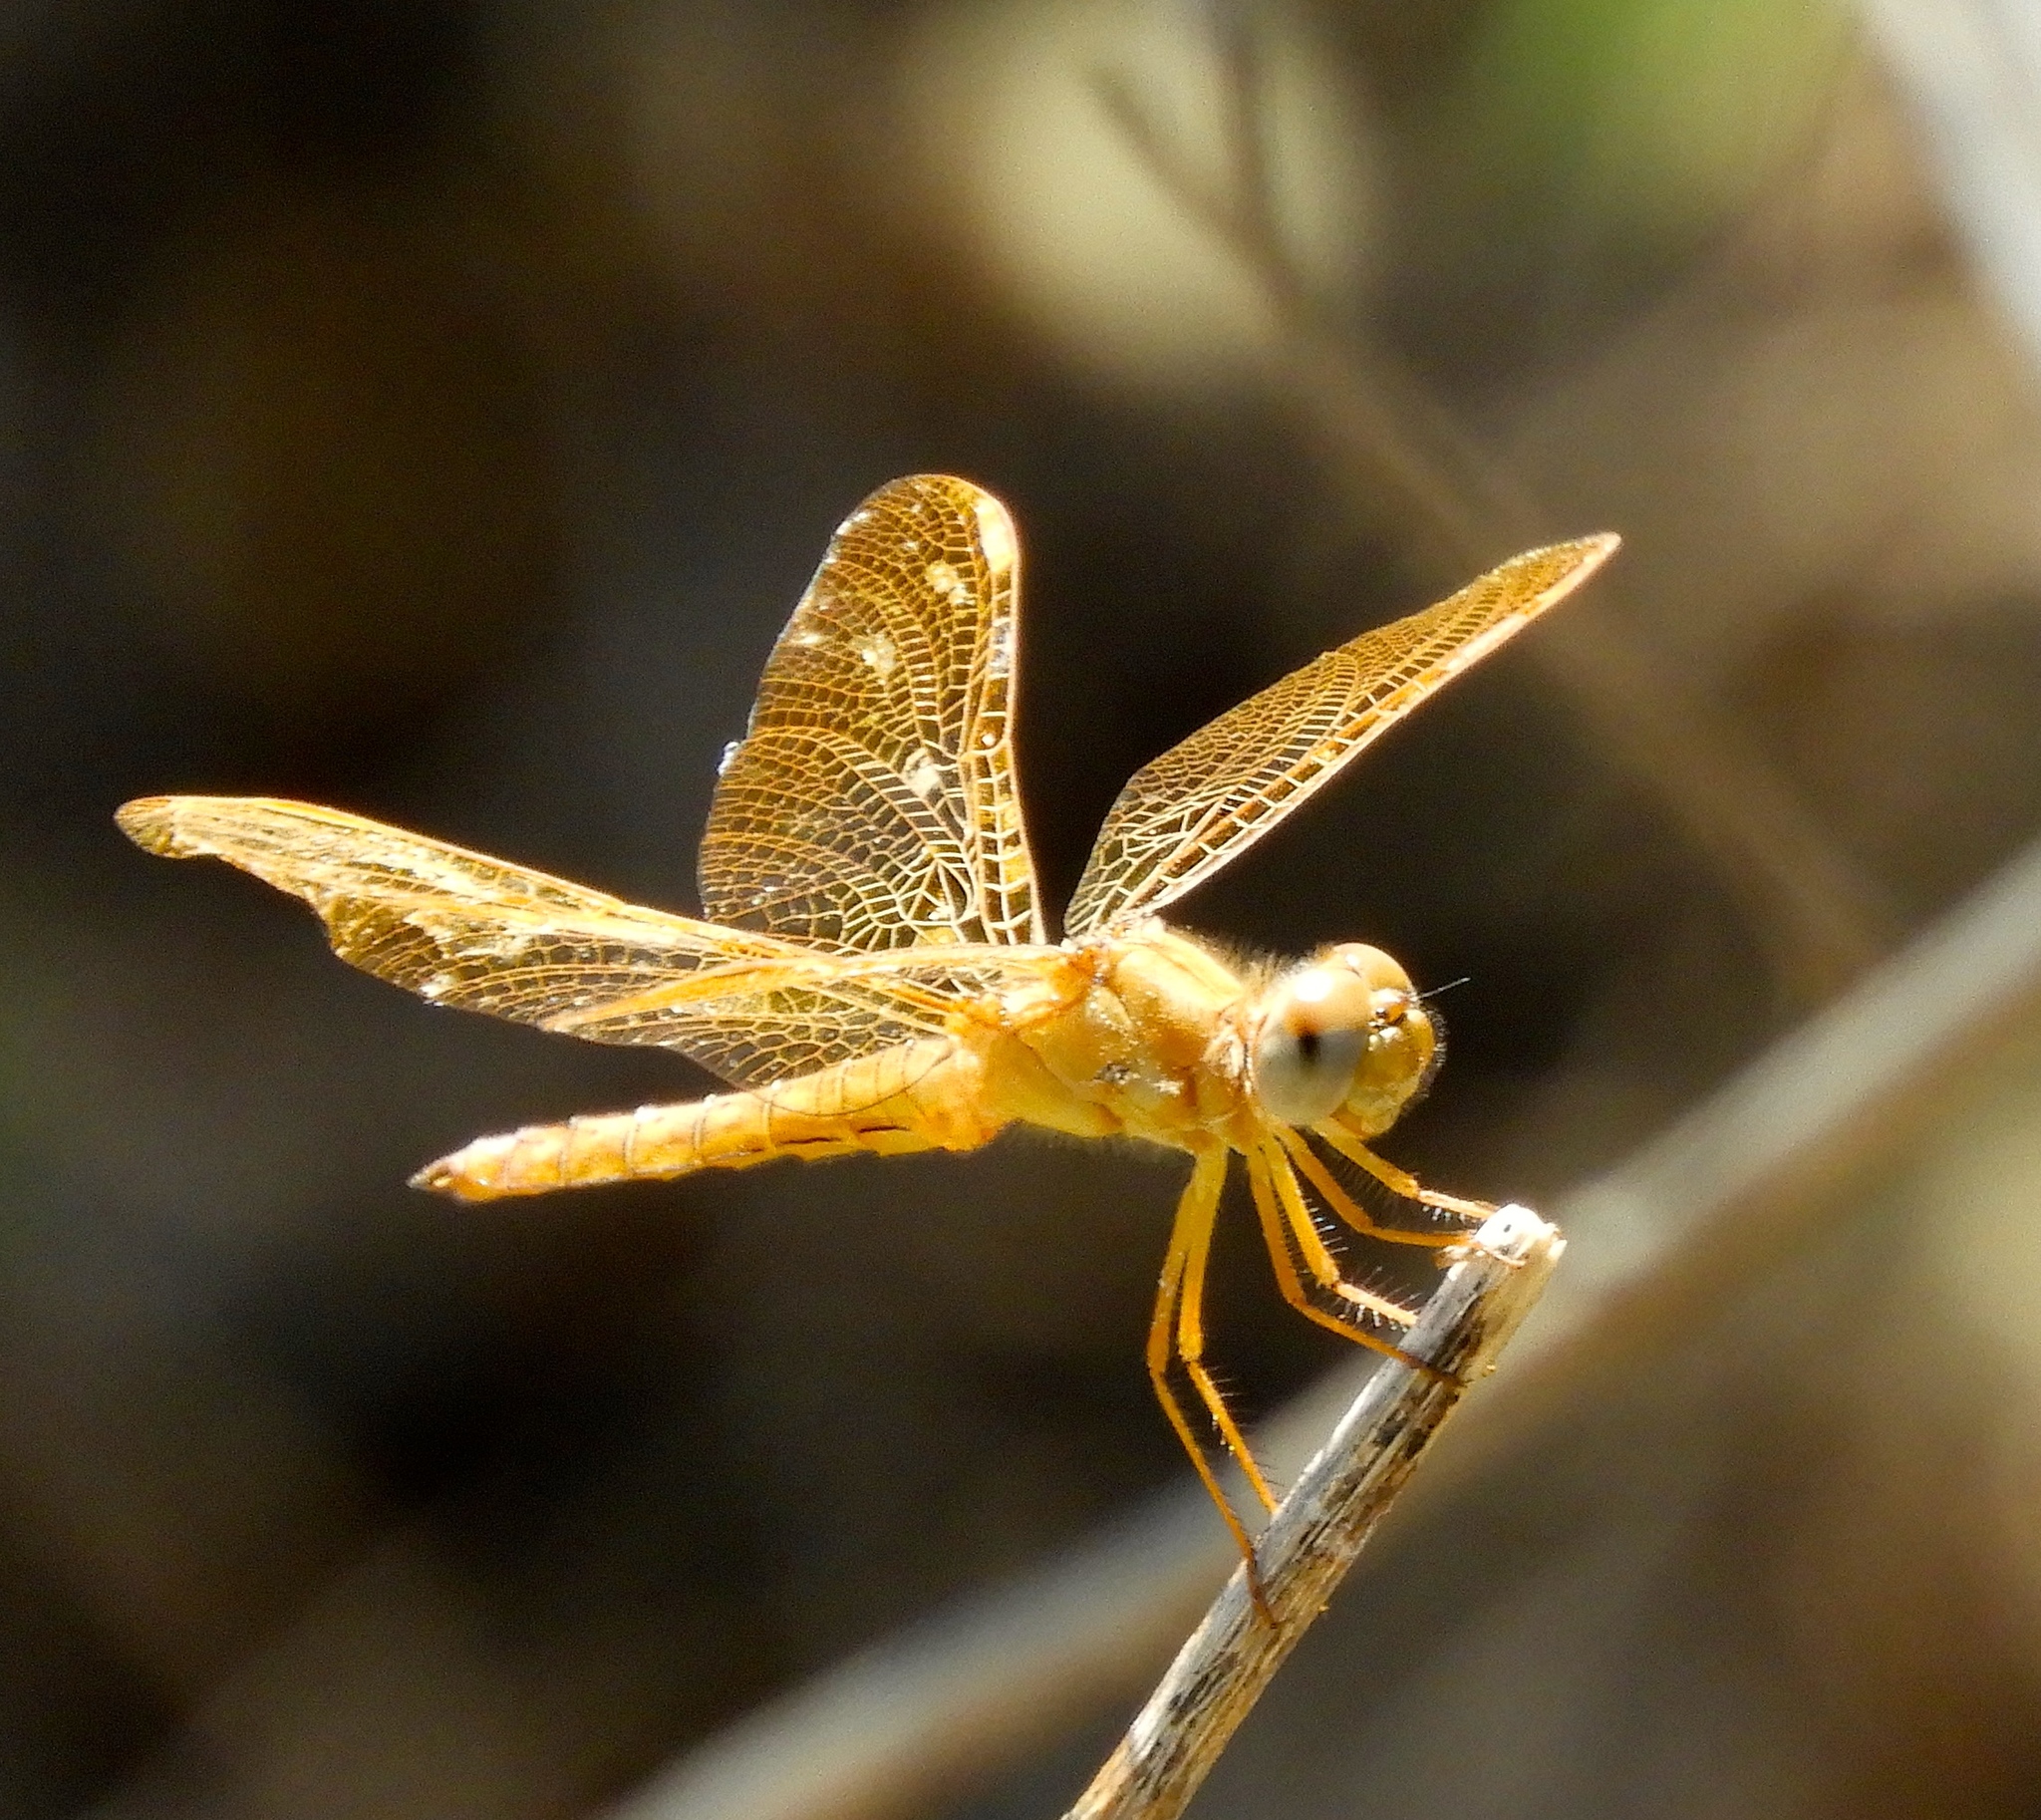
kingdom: Animalia
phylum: Arthropoda
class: Insecta
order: Odonata
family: Libellulidae
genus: Perithemis
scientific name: Perithemis intensa
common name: Mexican amberwing
